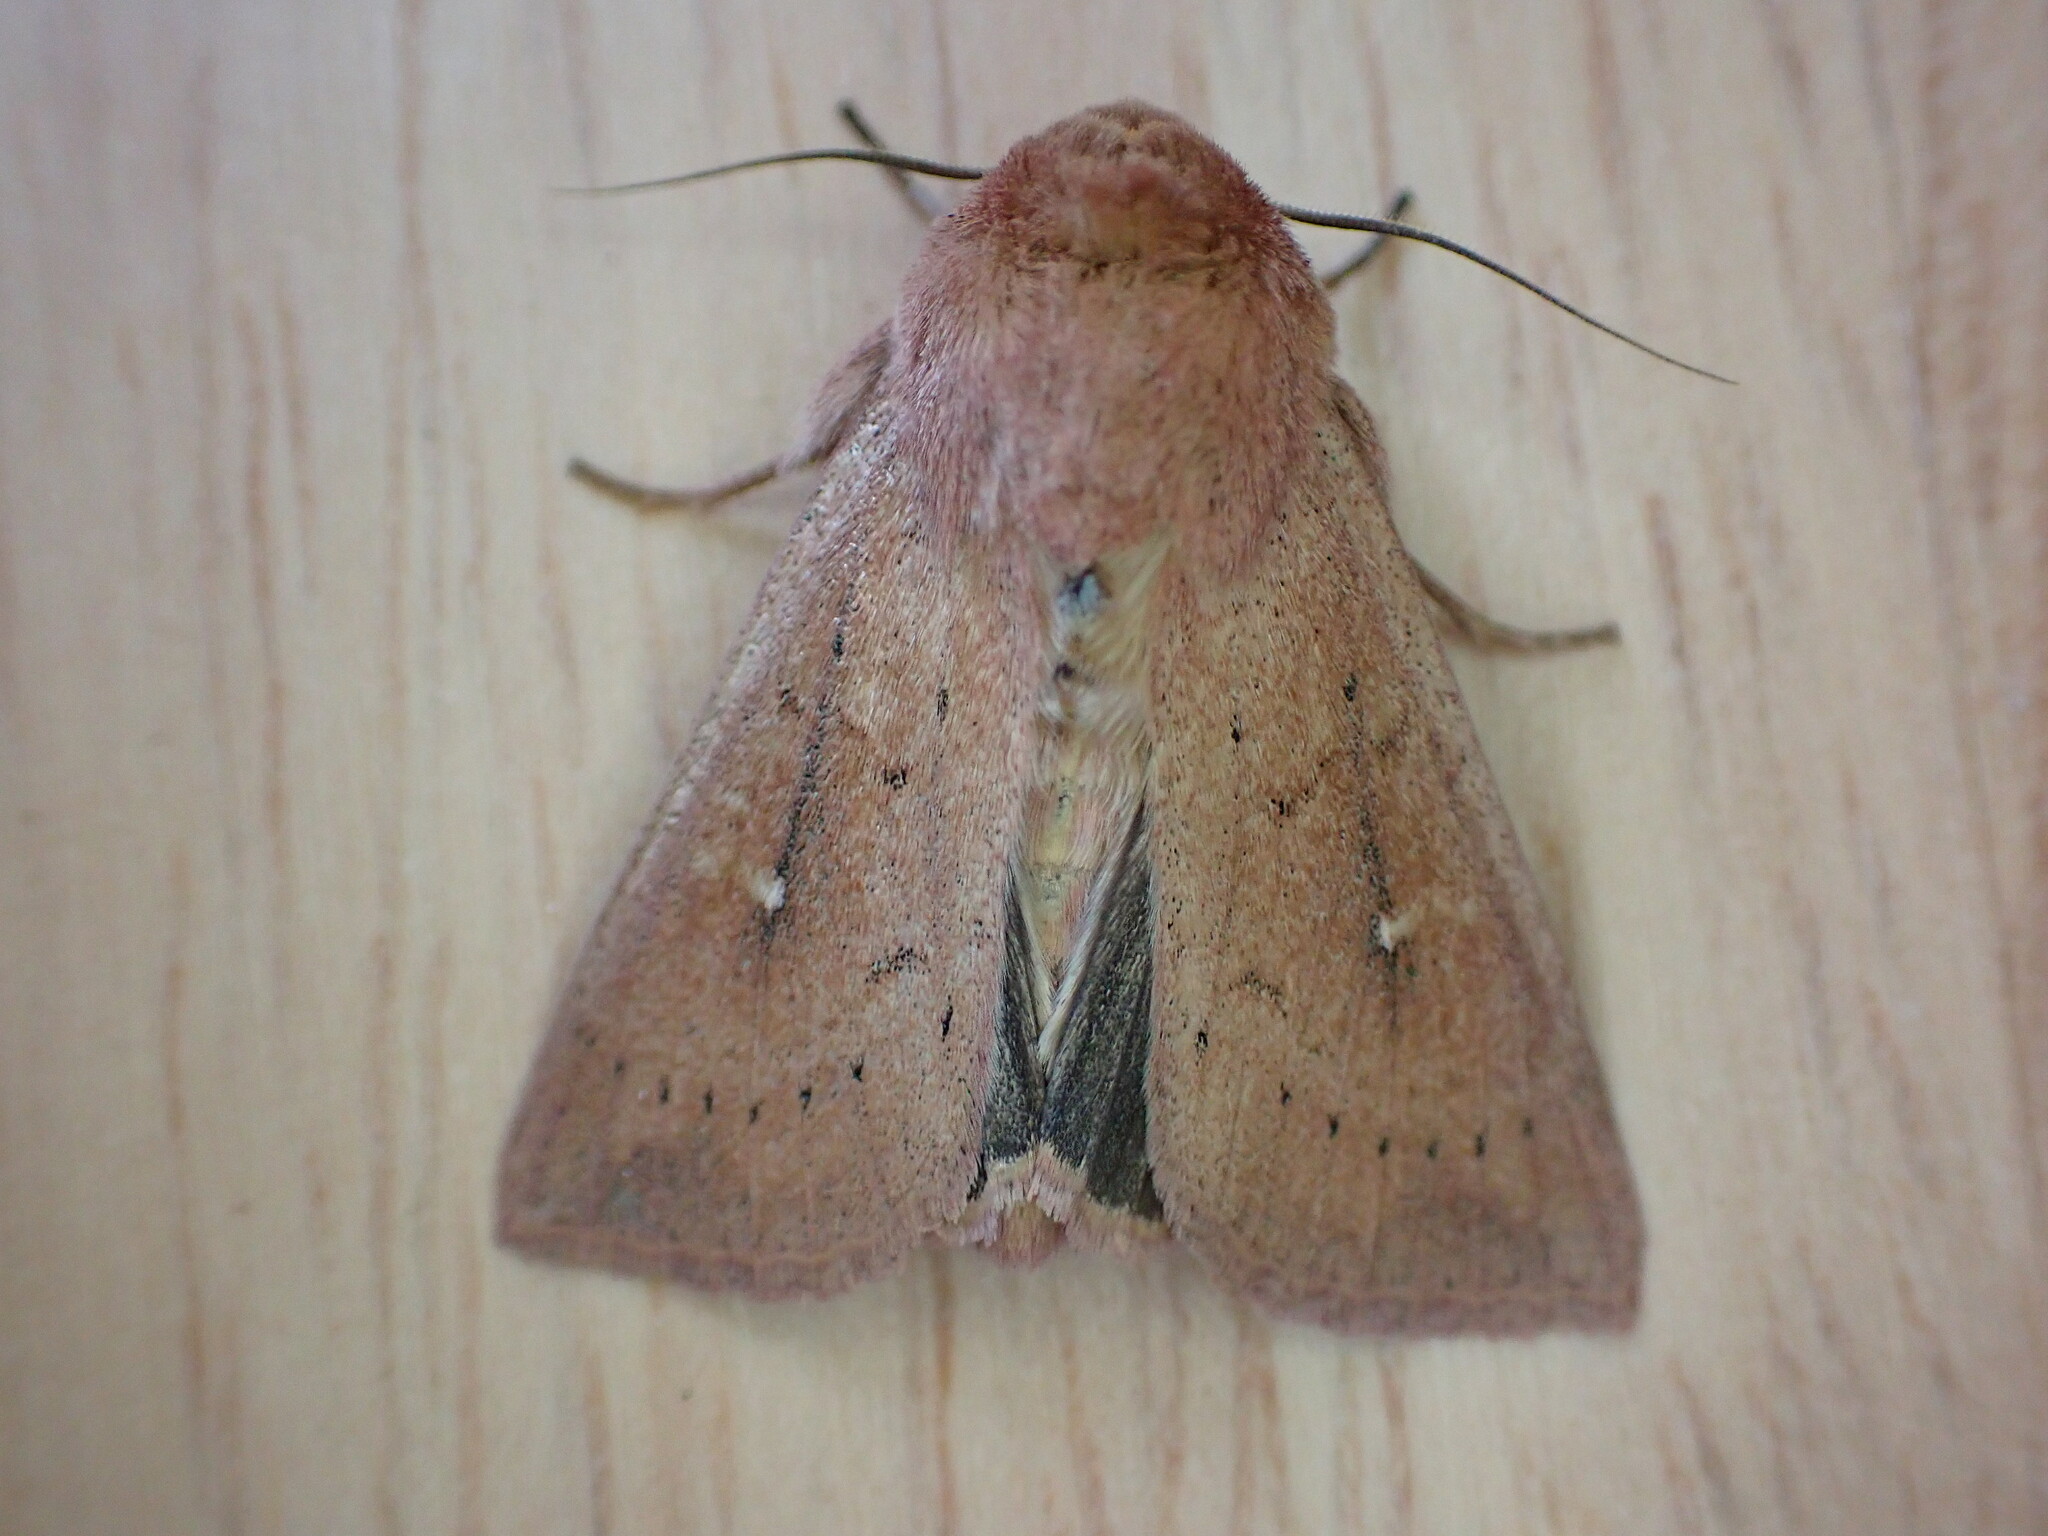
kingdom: Animalia
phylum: Arthropoda
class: Insecta
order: Lepidoptera
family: Noctuidae
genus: Mythimna
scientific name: Mythimna ferrago
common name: Clay
